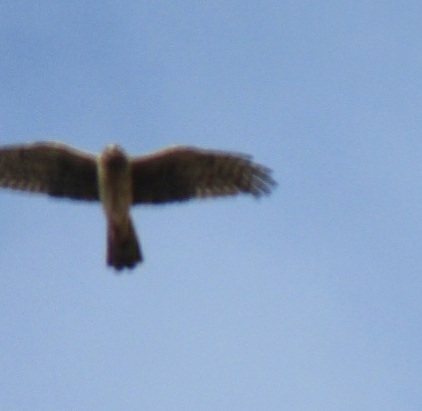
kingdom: Animalia
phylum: Chordata
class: Aves
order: Accipitriformes
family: Accipitridae
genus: Circus
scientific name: Circus cyaneus
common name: Hen harrier
